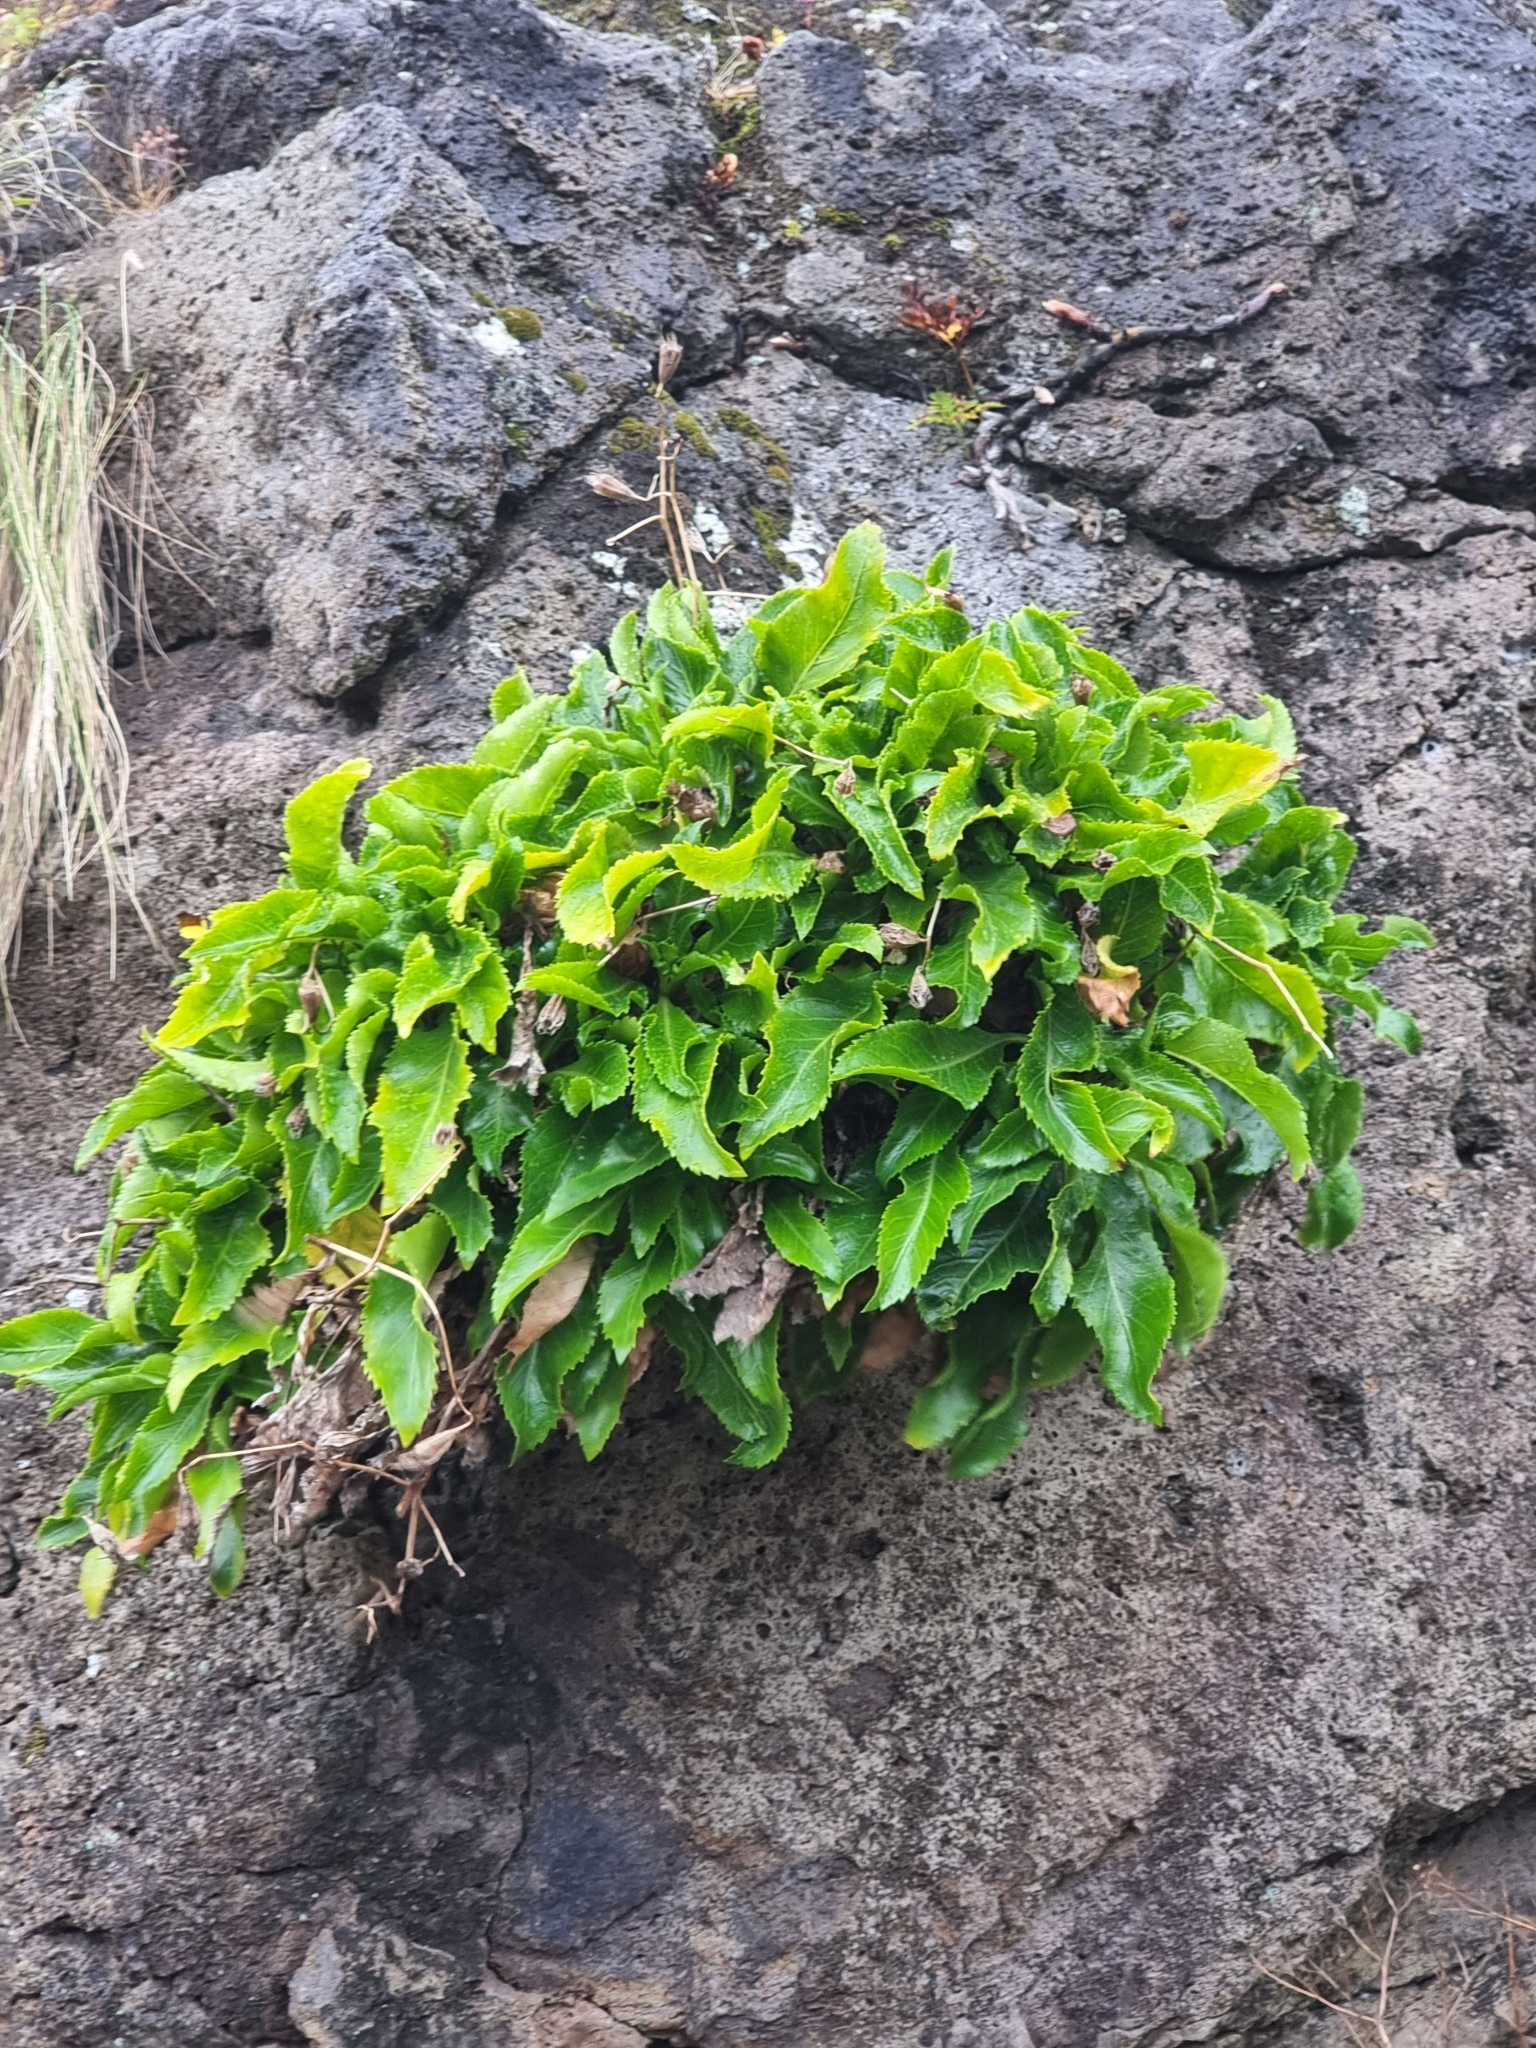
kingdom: Plantae
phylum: Tracheophyta
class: Magnoliopsida
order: Asterales
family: Campanulaceae
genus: Musschia
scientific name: Musschia aurea
